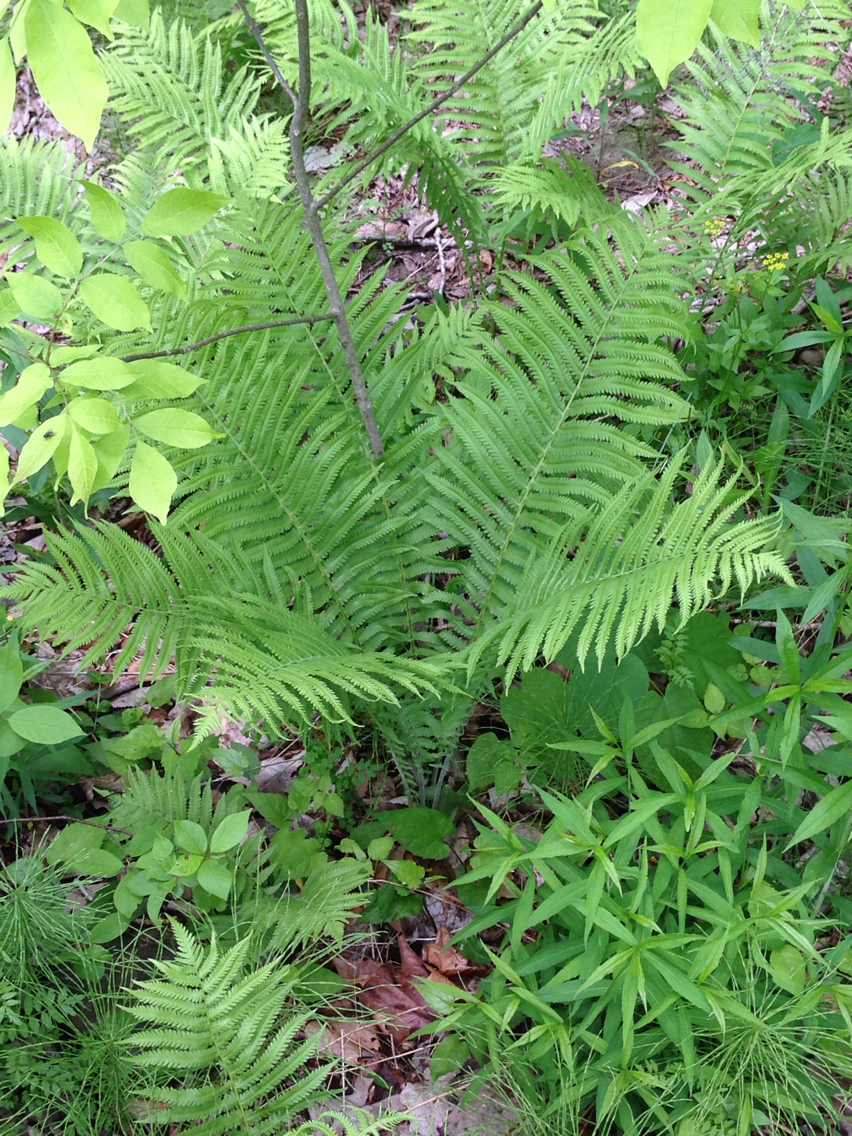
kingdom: Plantae
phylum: Tracheophyta
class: Polypodiopsida
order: Polypodiales
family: Onocleaceae
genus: Matteuccia
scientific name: Matteuccia struthiopteris
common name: Ostrich fern
